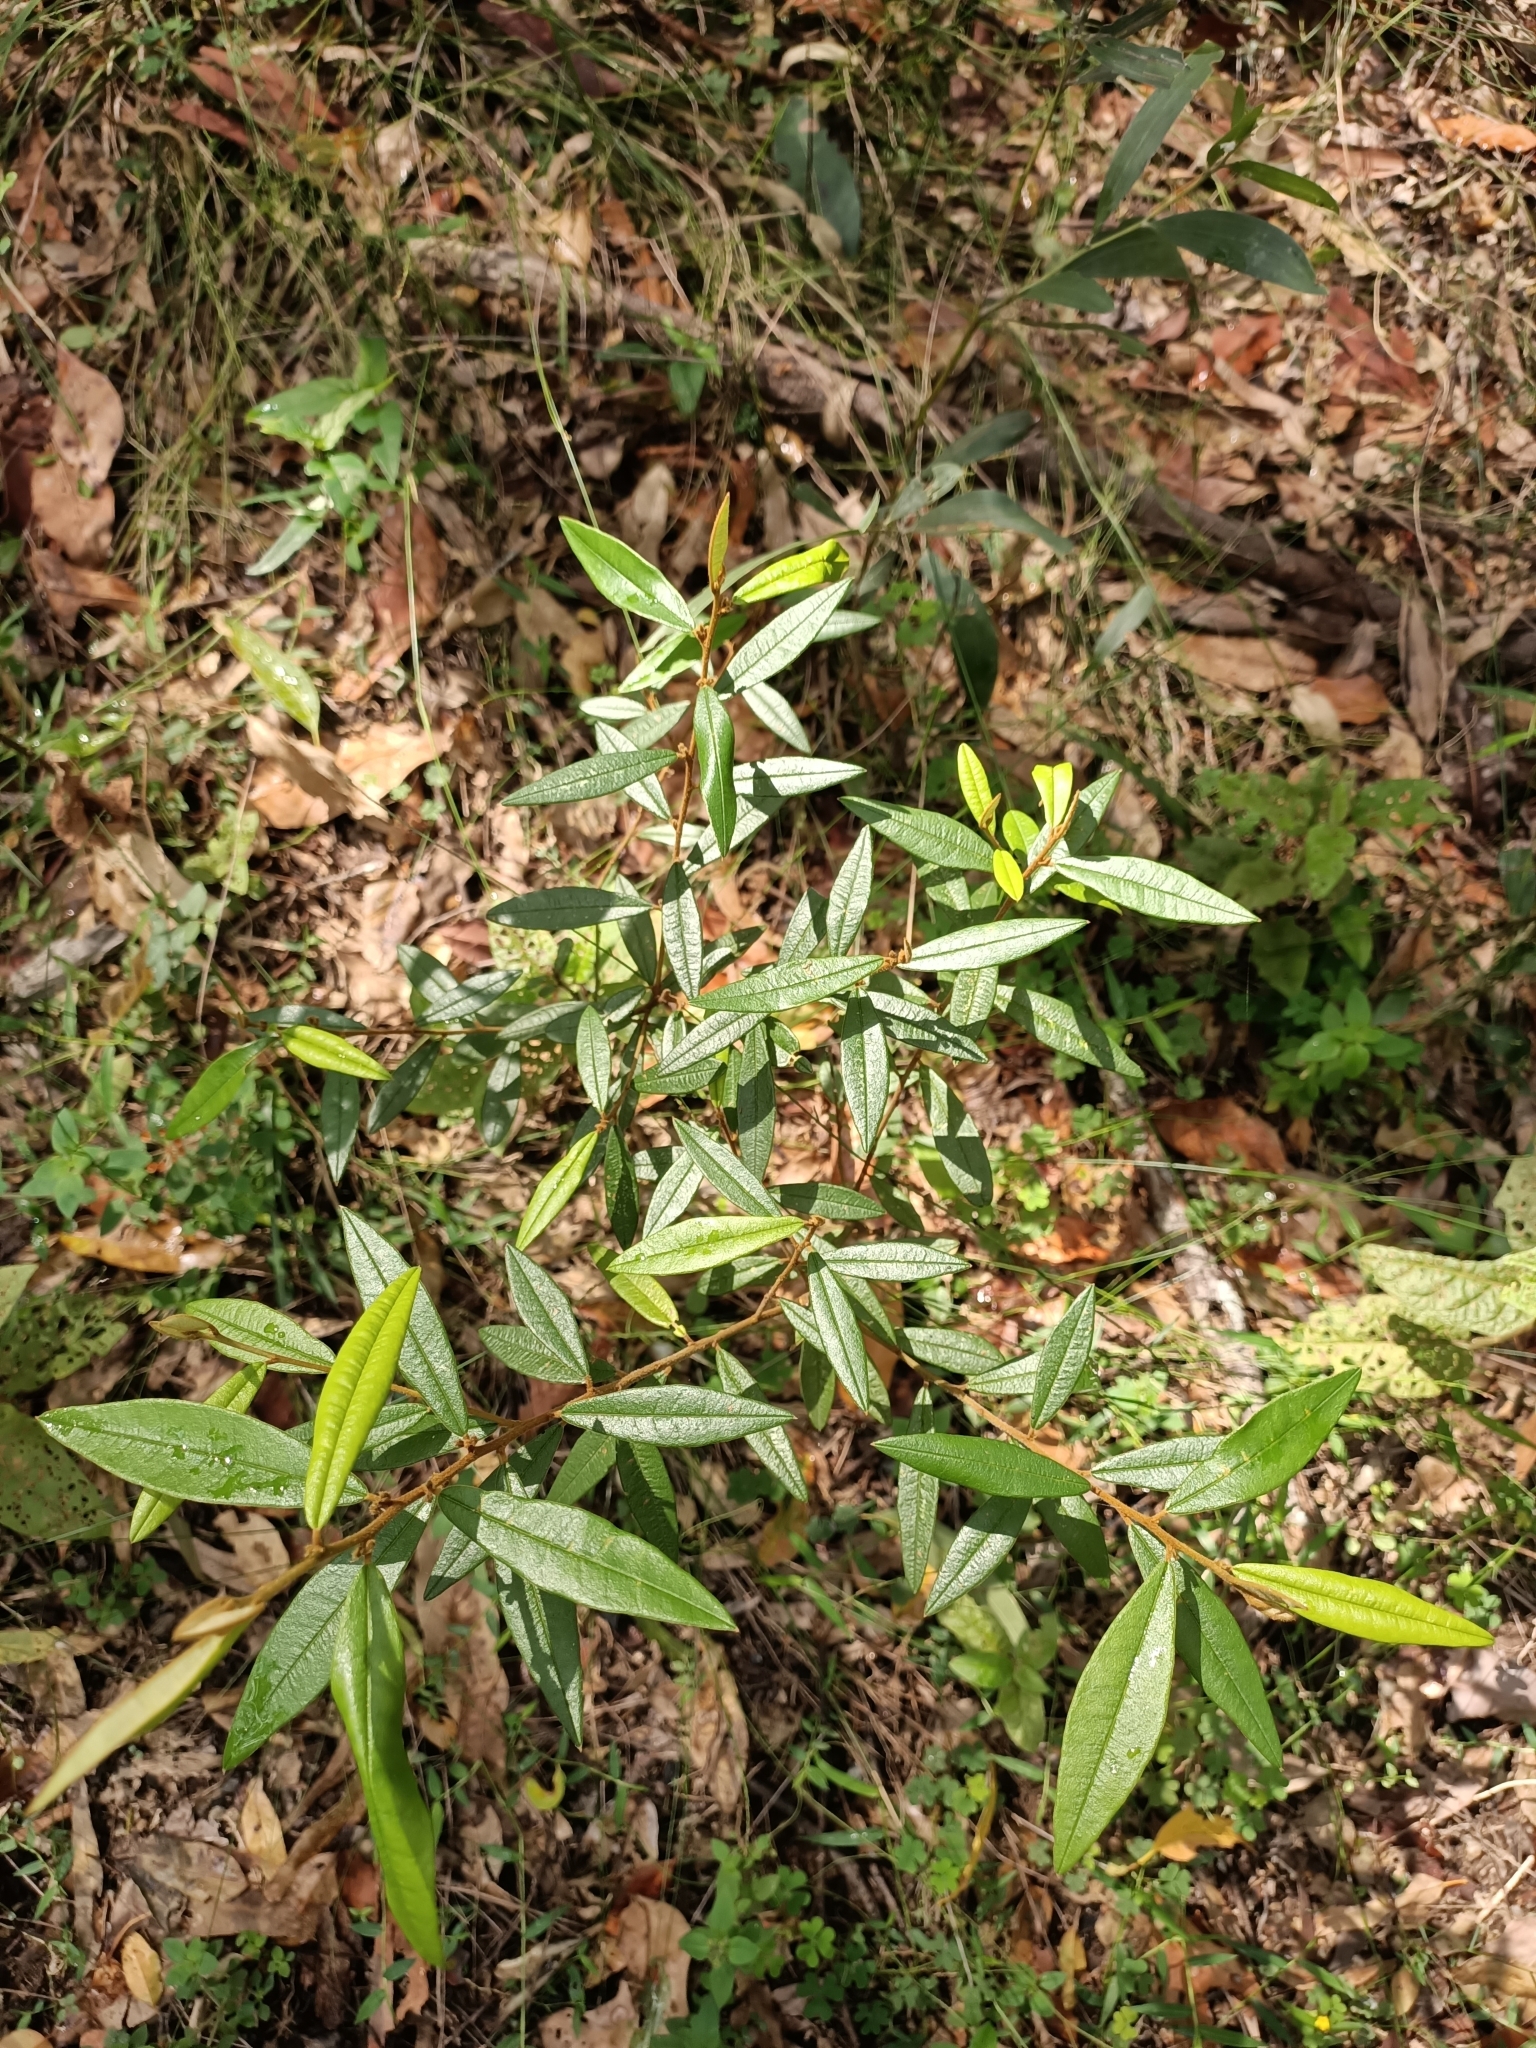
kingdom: Plantae
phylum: Tracheophyta
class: Magnoliopsida
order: Fabales
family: Fabaceae
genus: Hovea
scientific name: Hovea acutifolia
